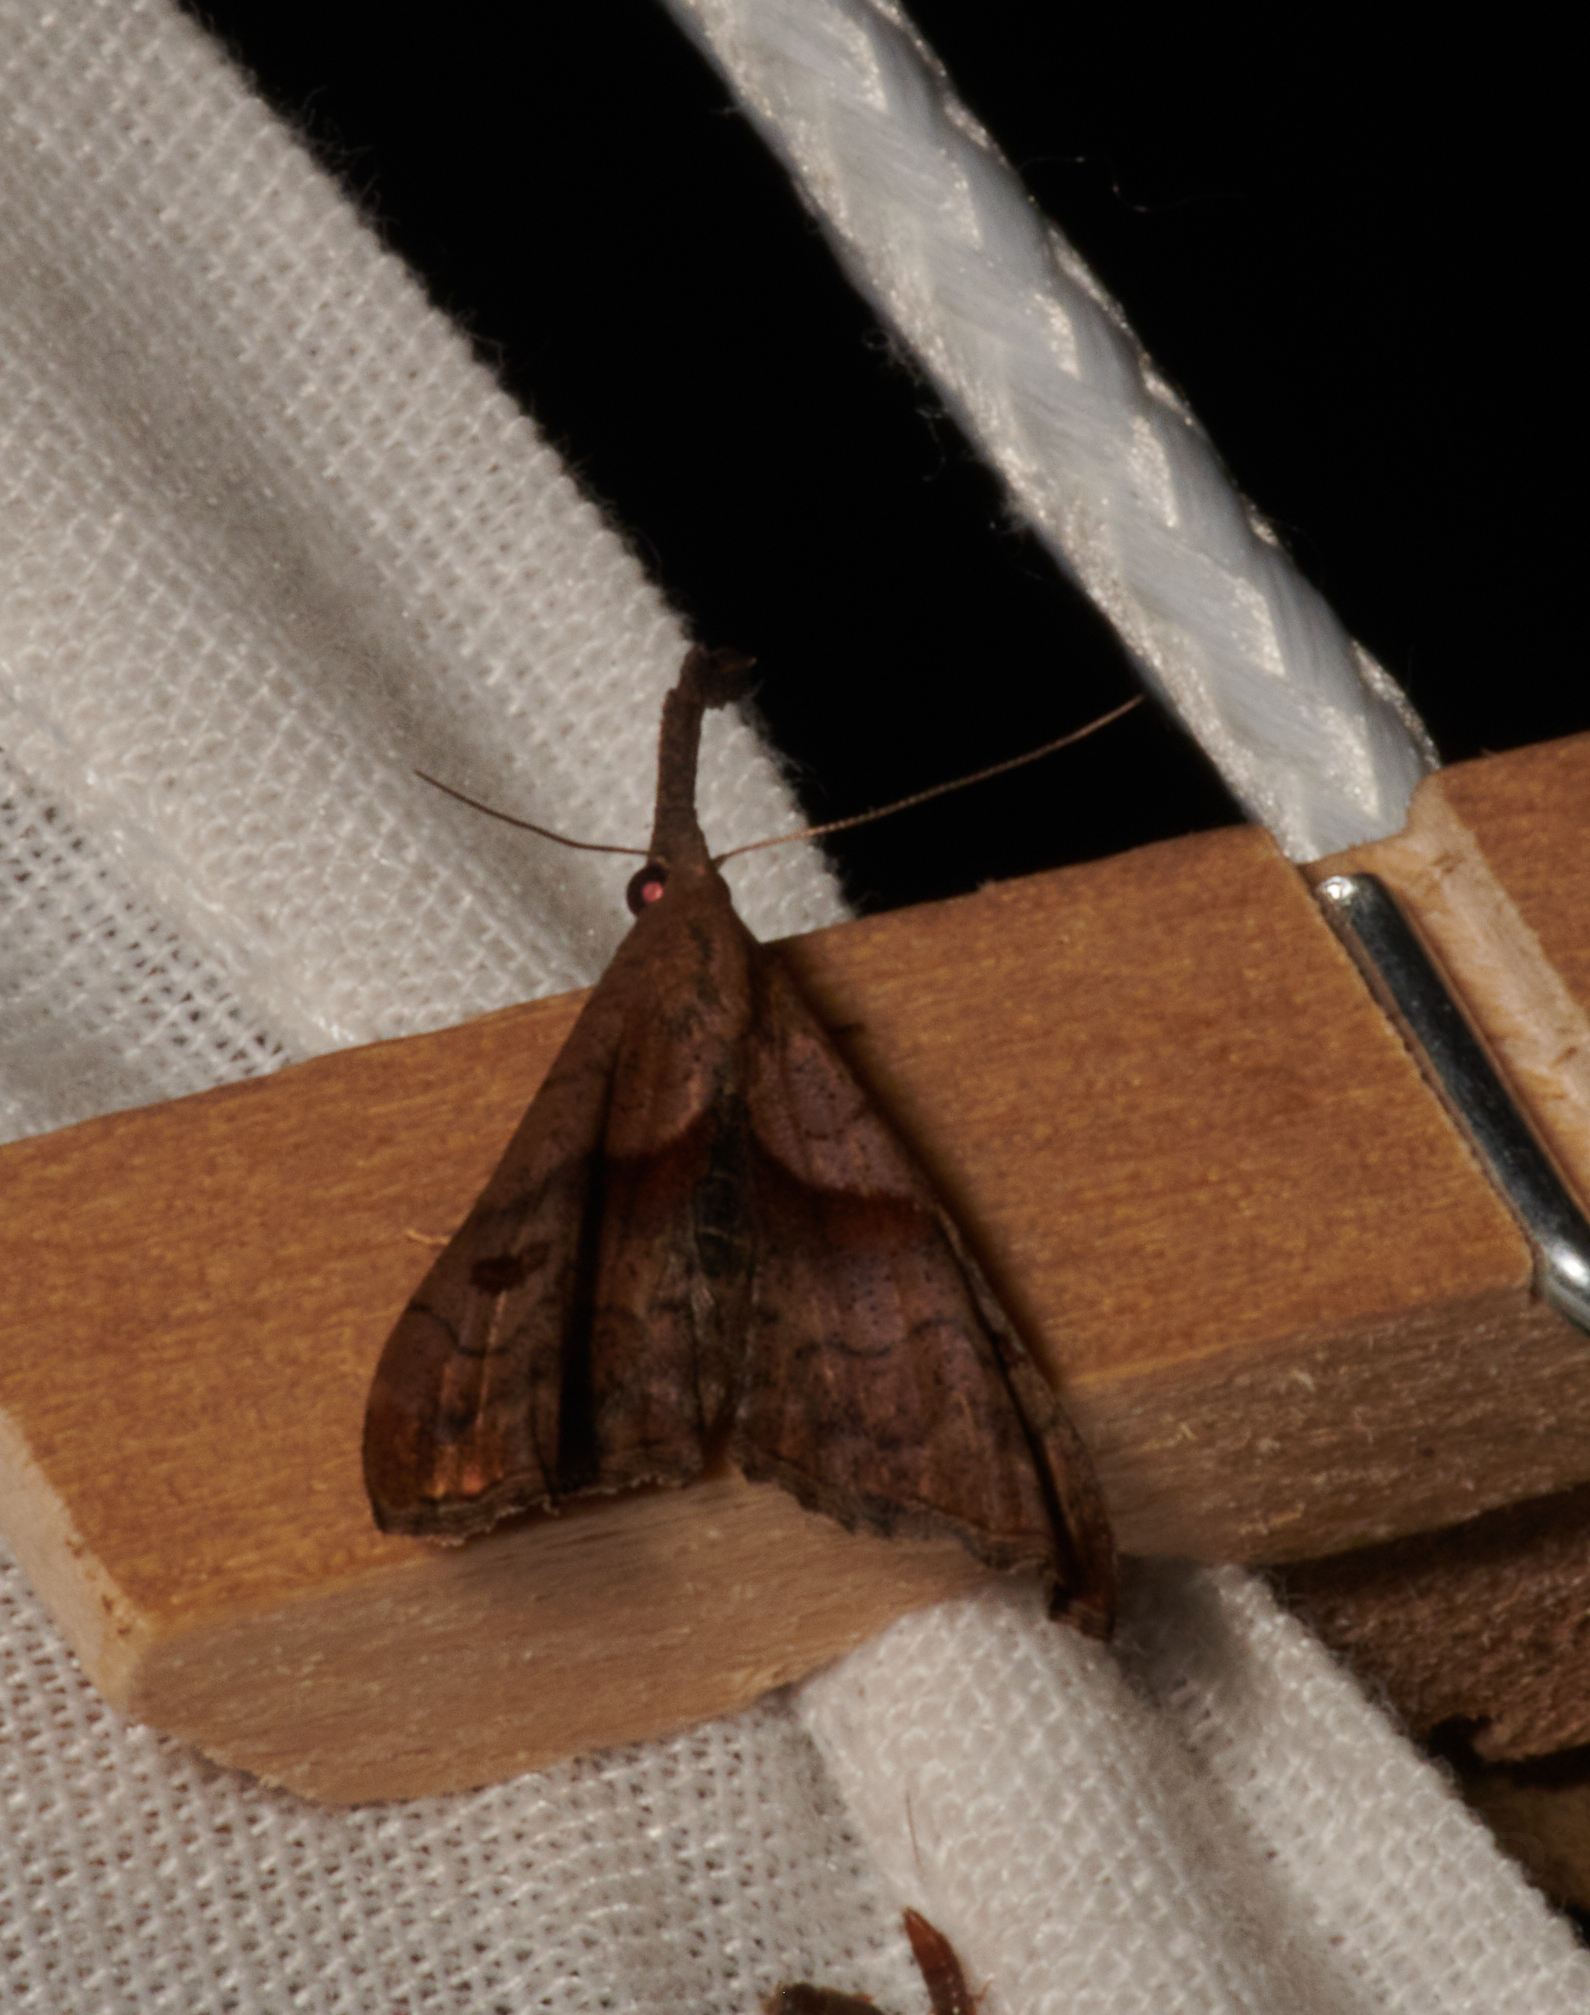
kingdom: Animalia
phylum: Arthropoda
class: Insecta
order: Lepidoptera
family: Erebidae
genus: Palthis
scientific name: Palthis angulalis
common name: Dark-spotted palthis moth
